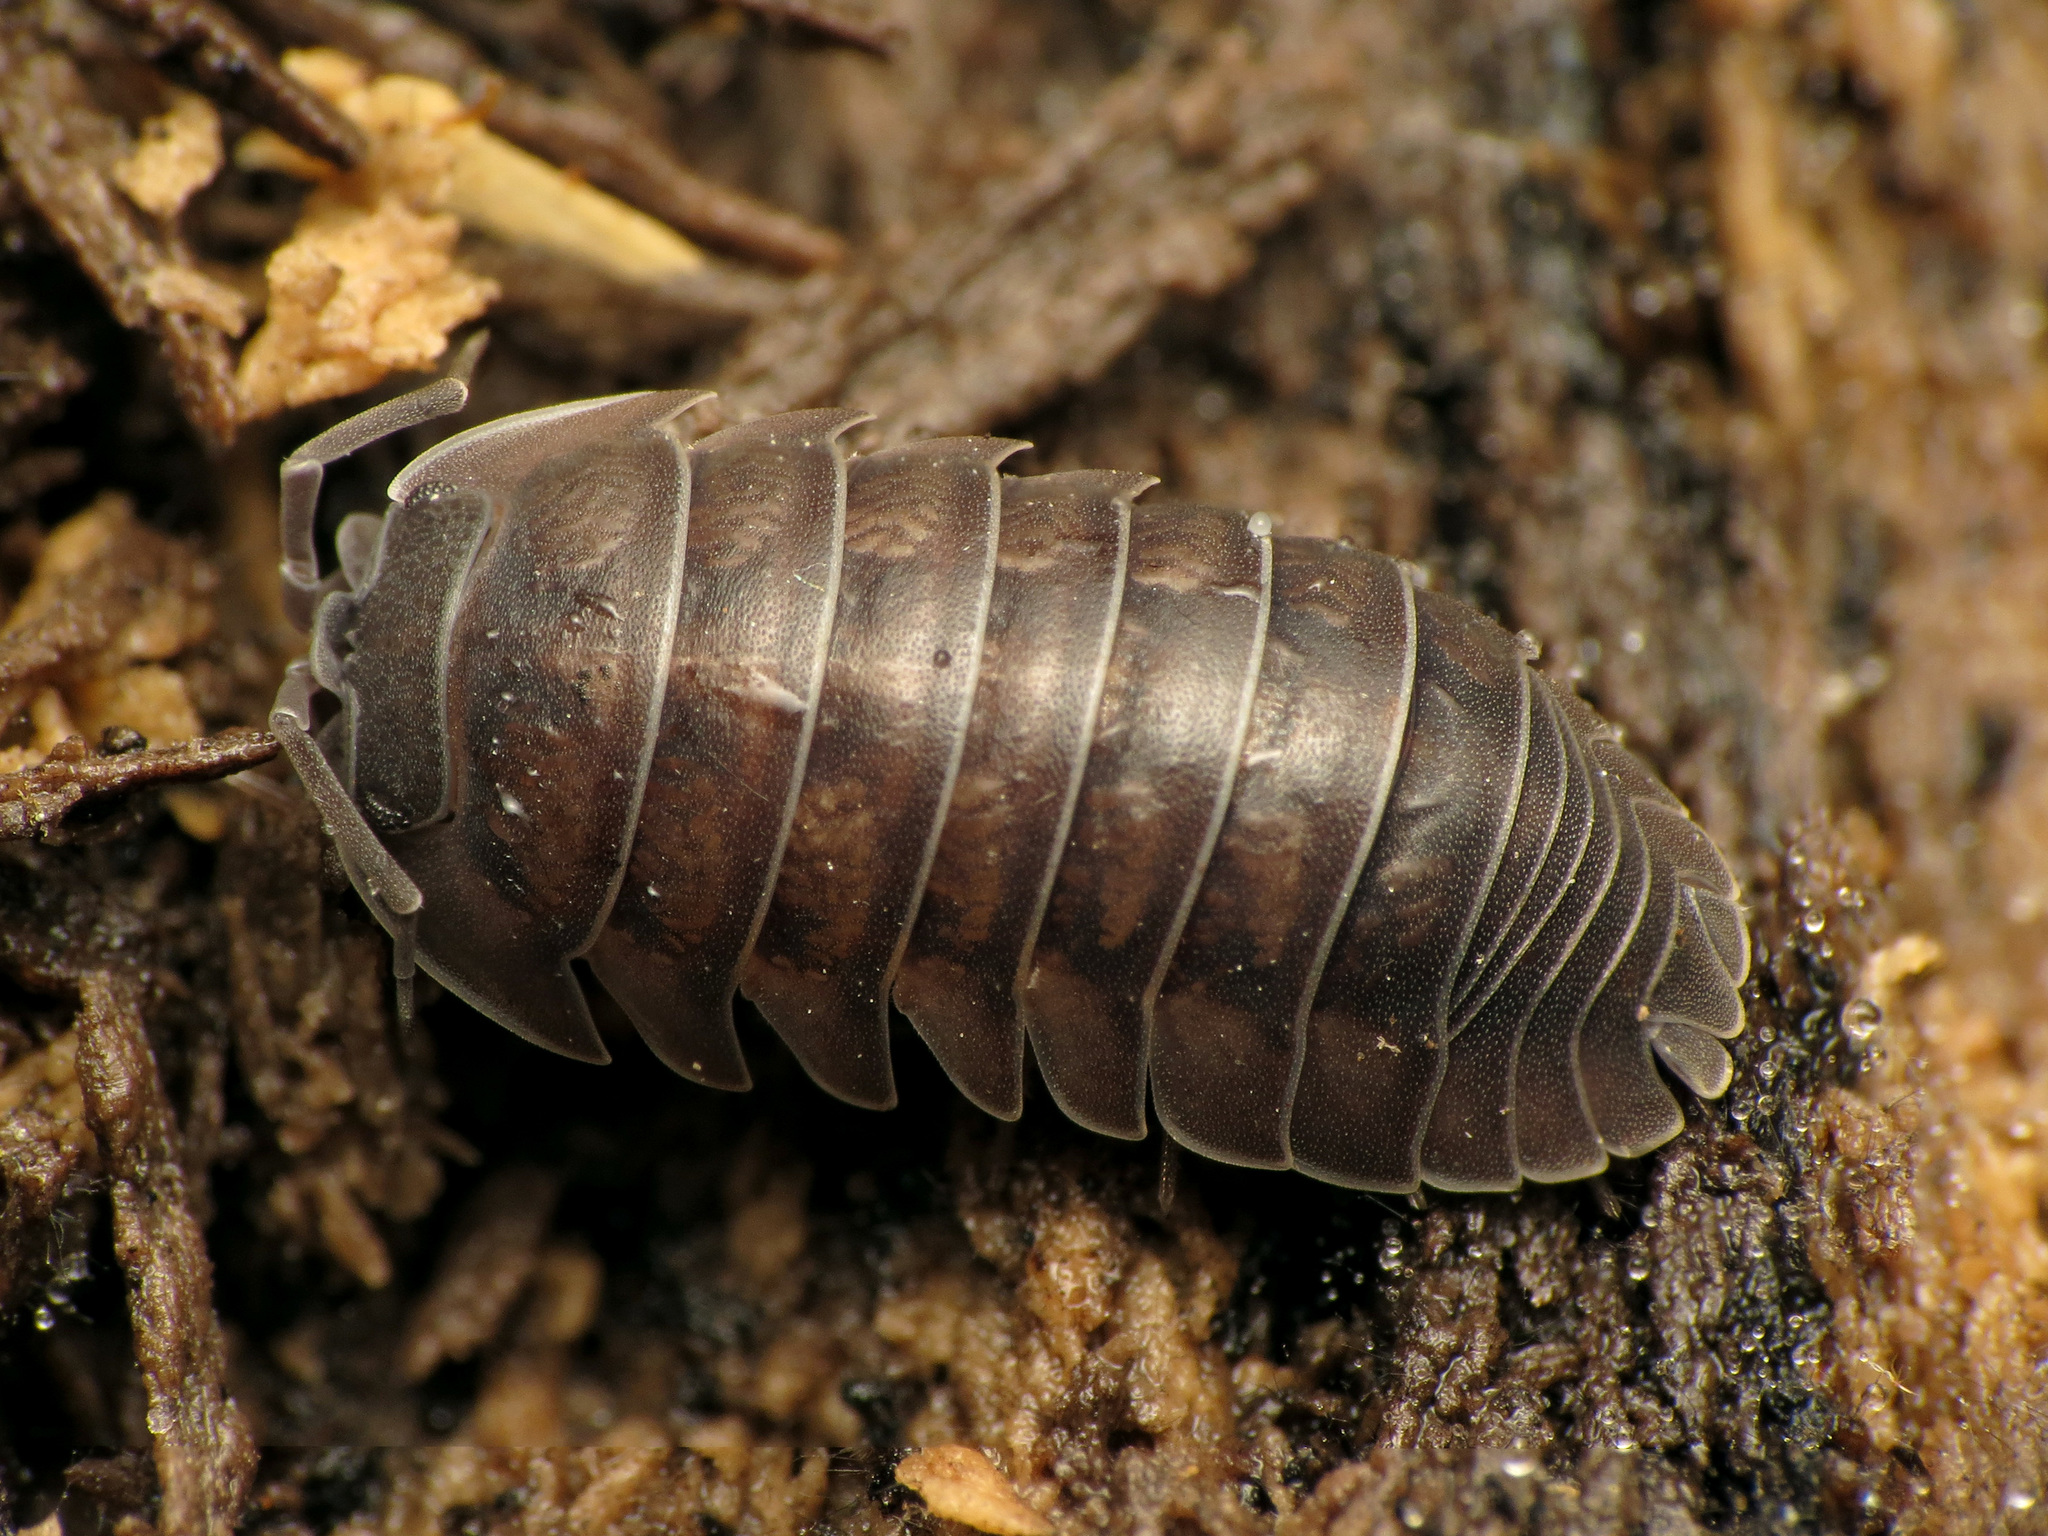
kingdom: Animalia
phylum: Arthropoda
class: Malacostraca
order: Isopoda
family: Armadillidiidae
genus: Armadillidium
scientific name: Armadillidium nasatum
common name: Isopod
